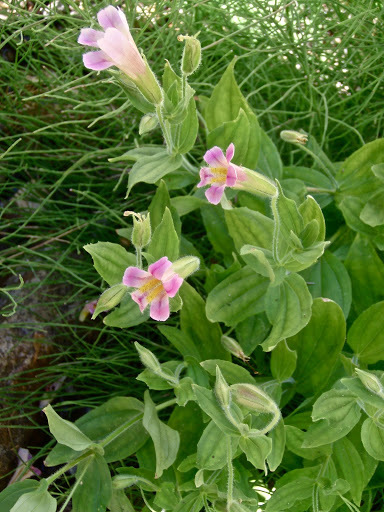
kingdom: Plantae
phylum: Tracheophyta
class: Magnoliopsida
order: Lamiales
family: Phrymaceae
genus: Erythranthe
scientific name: Erythranthe erubescens
